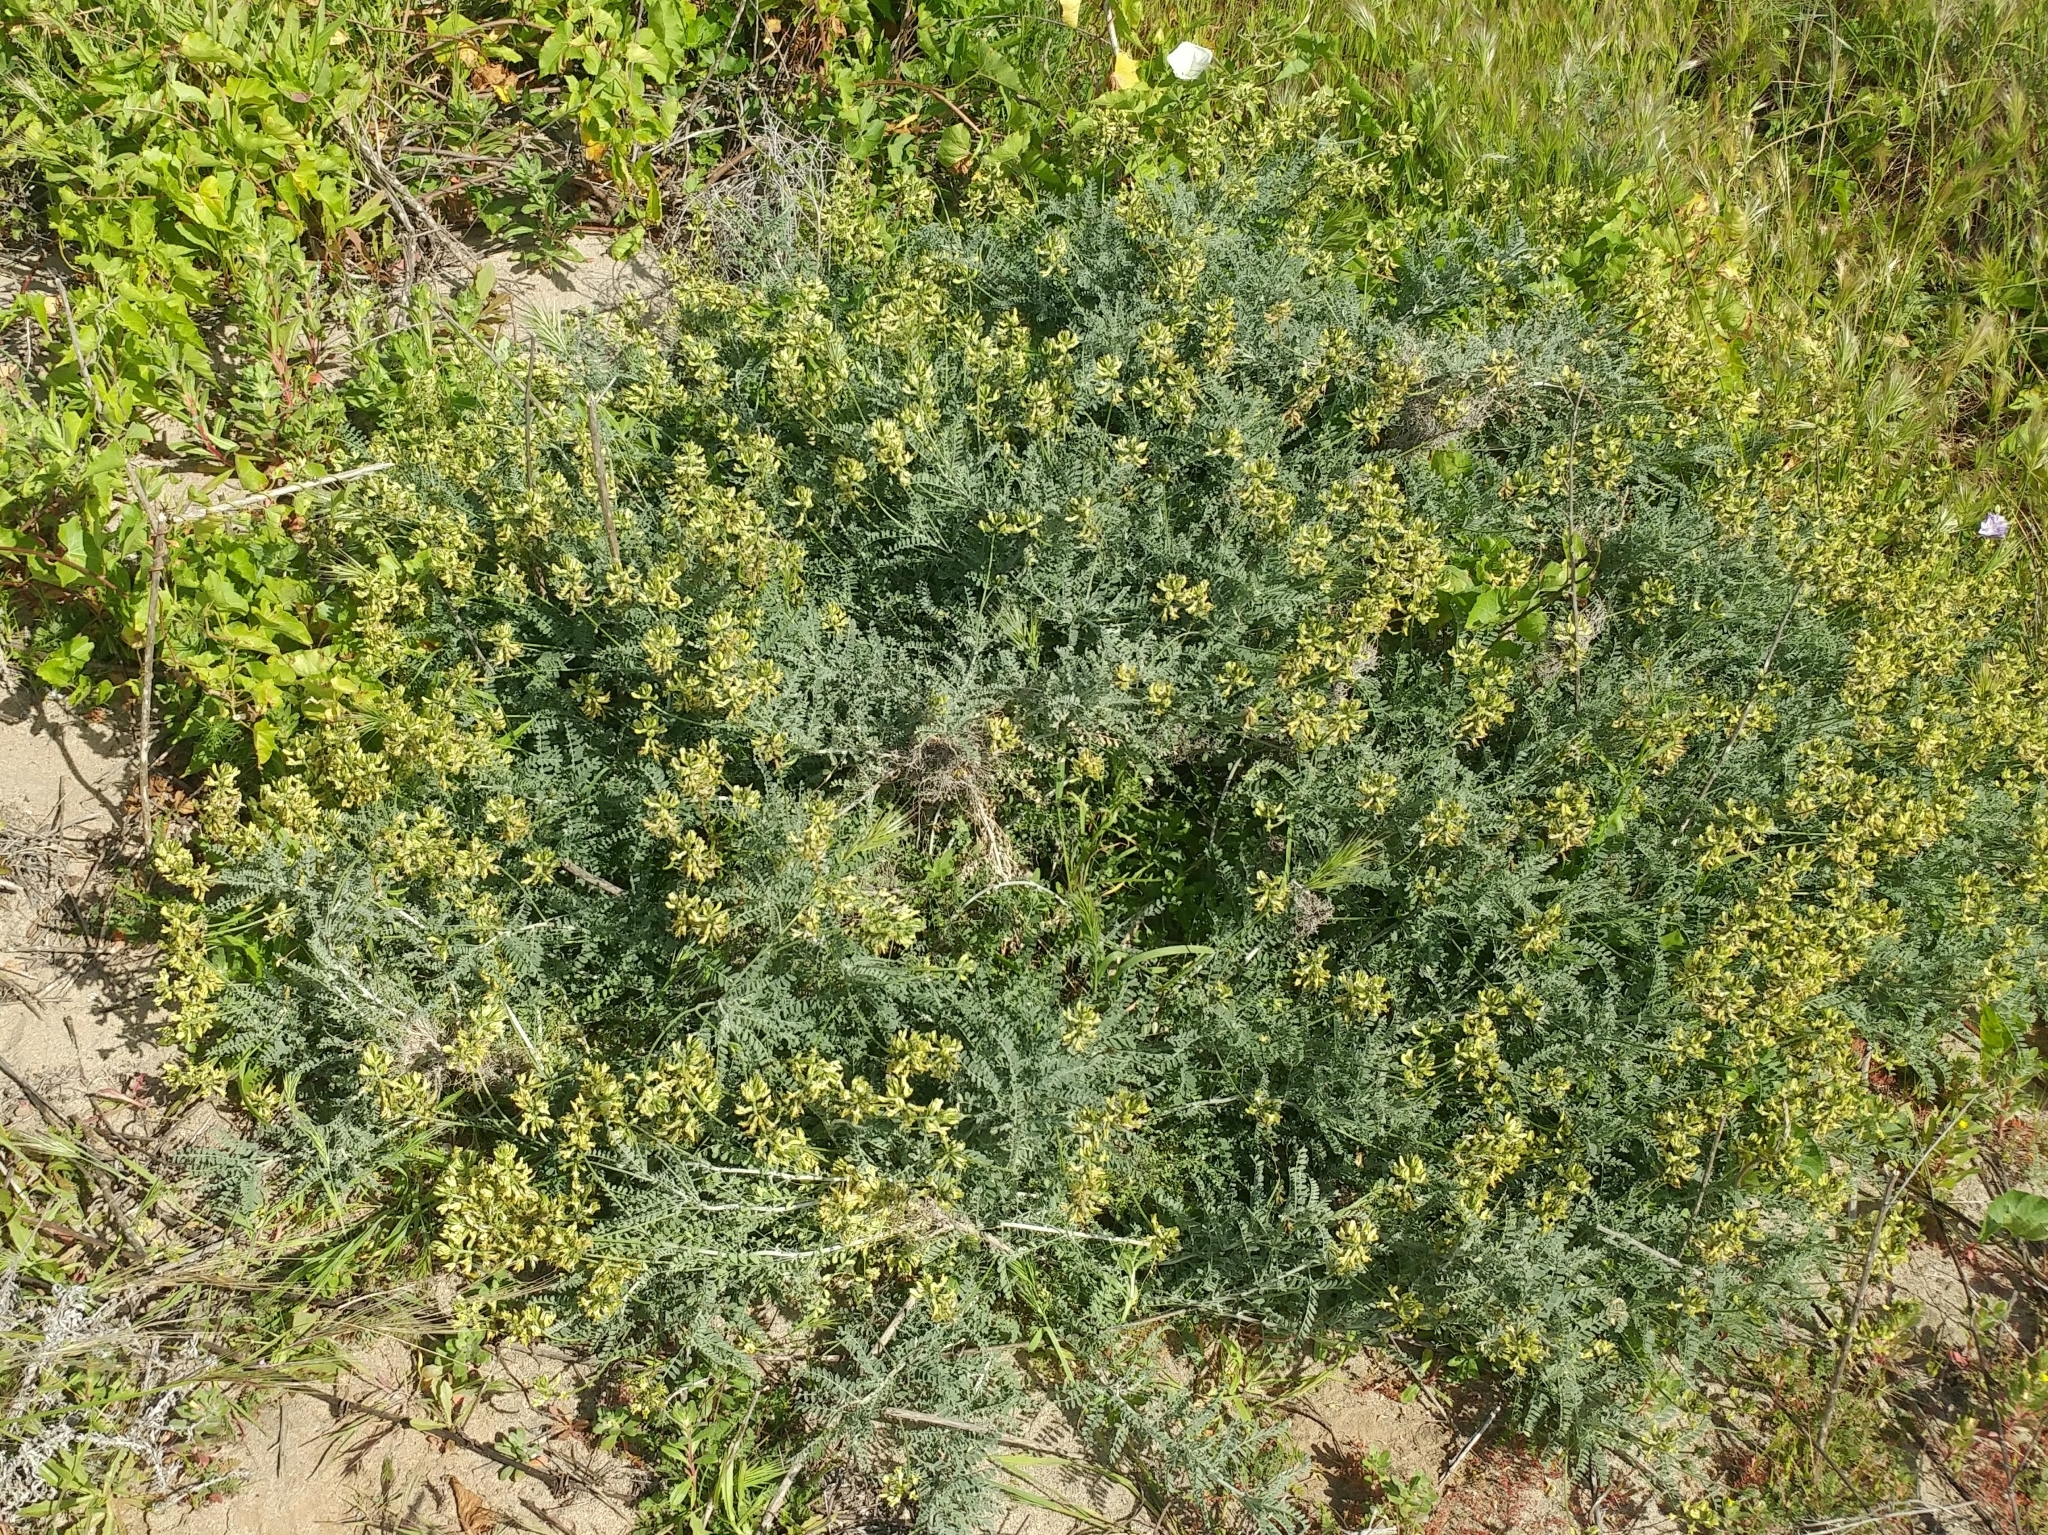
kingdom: Plantae
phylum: Tracheophyta
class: Magnoliopsida
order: Fabales
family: Fabaceae
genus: Astragalus
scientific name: Astragalus nevinii
